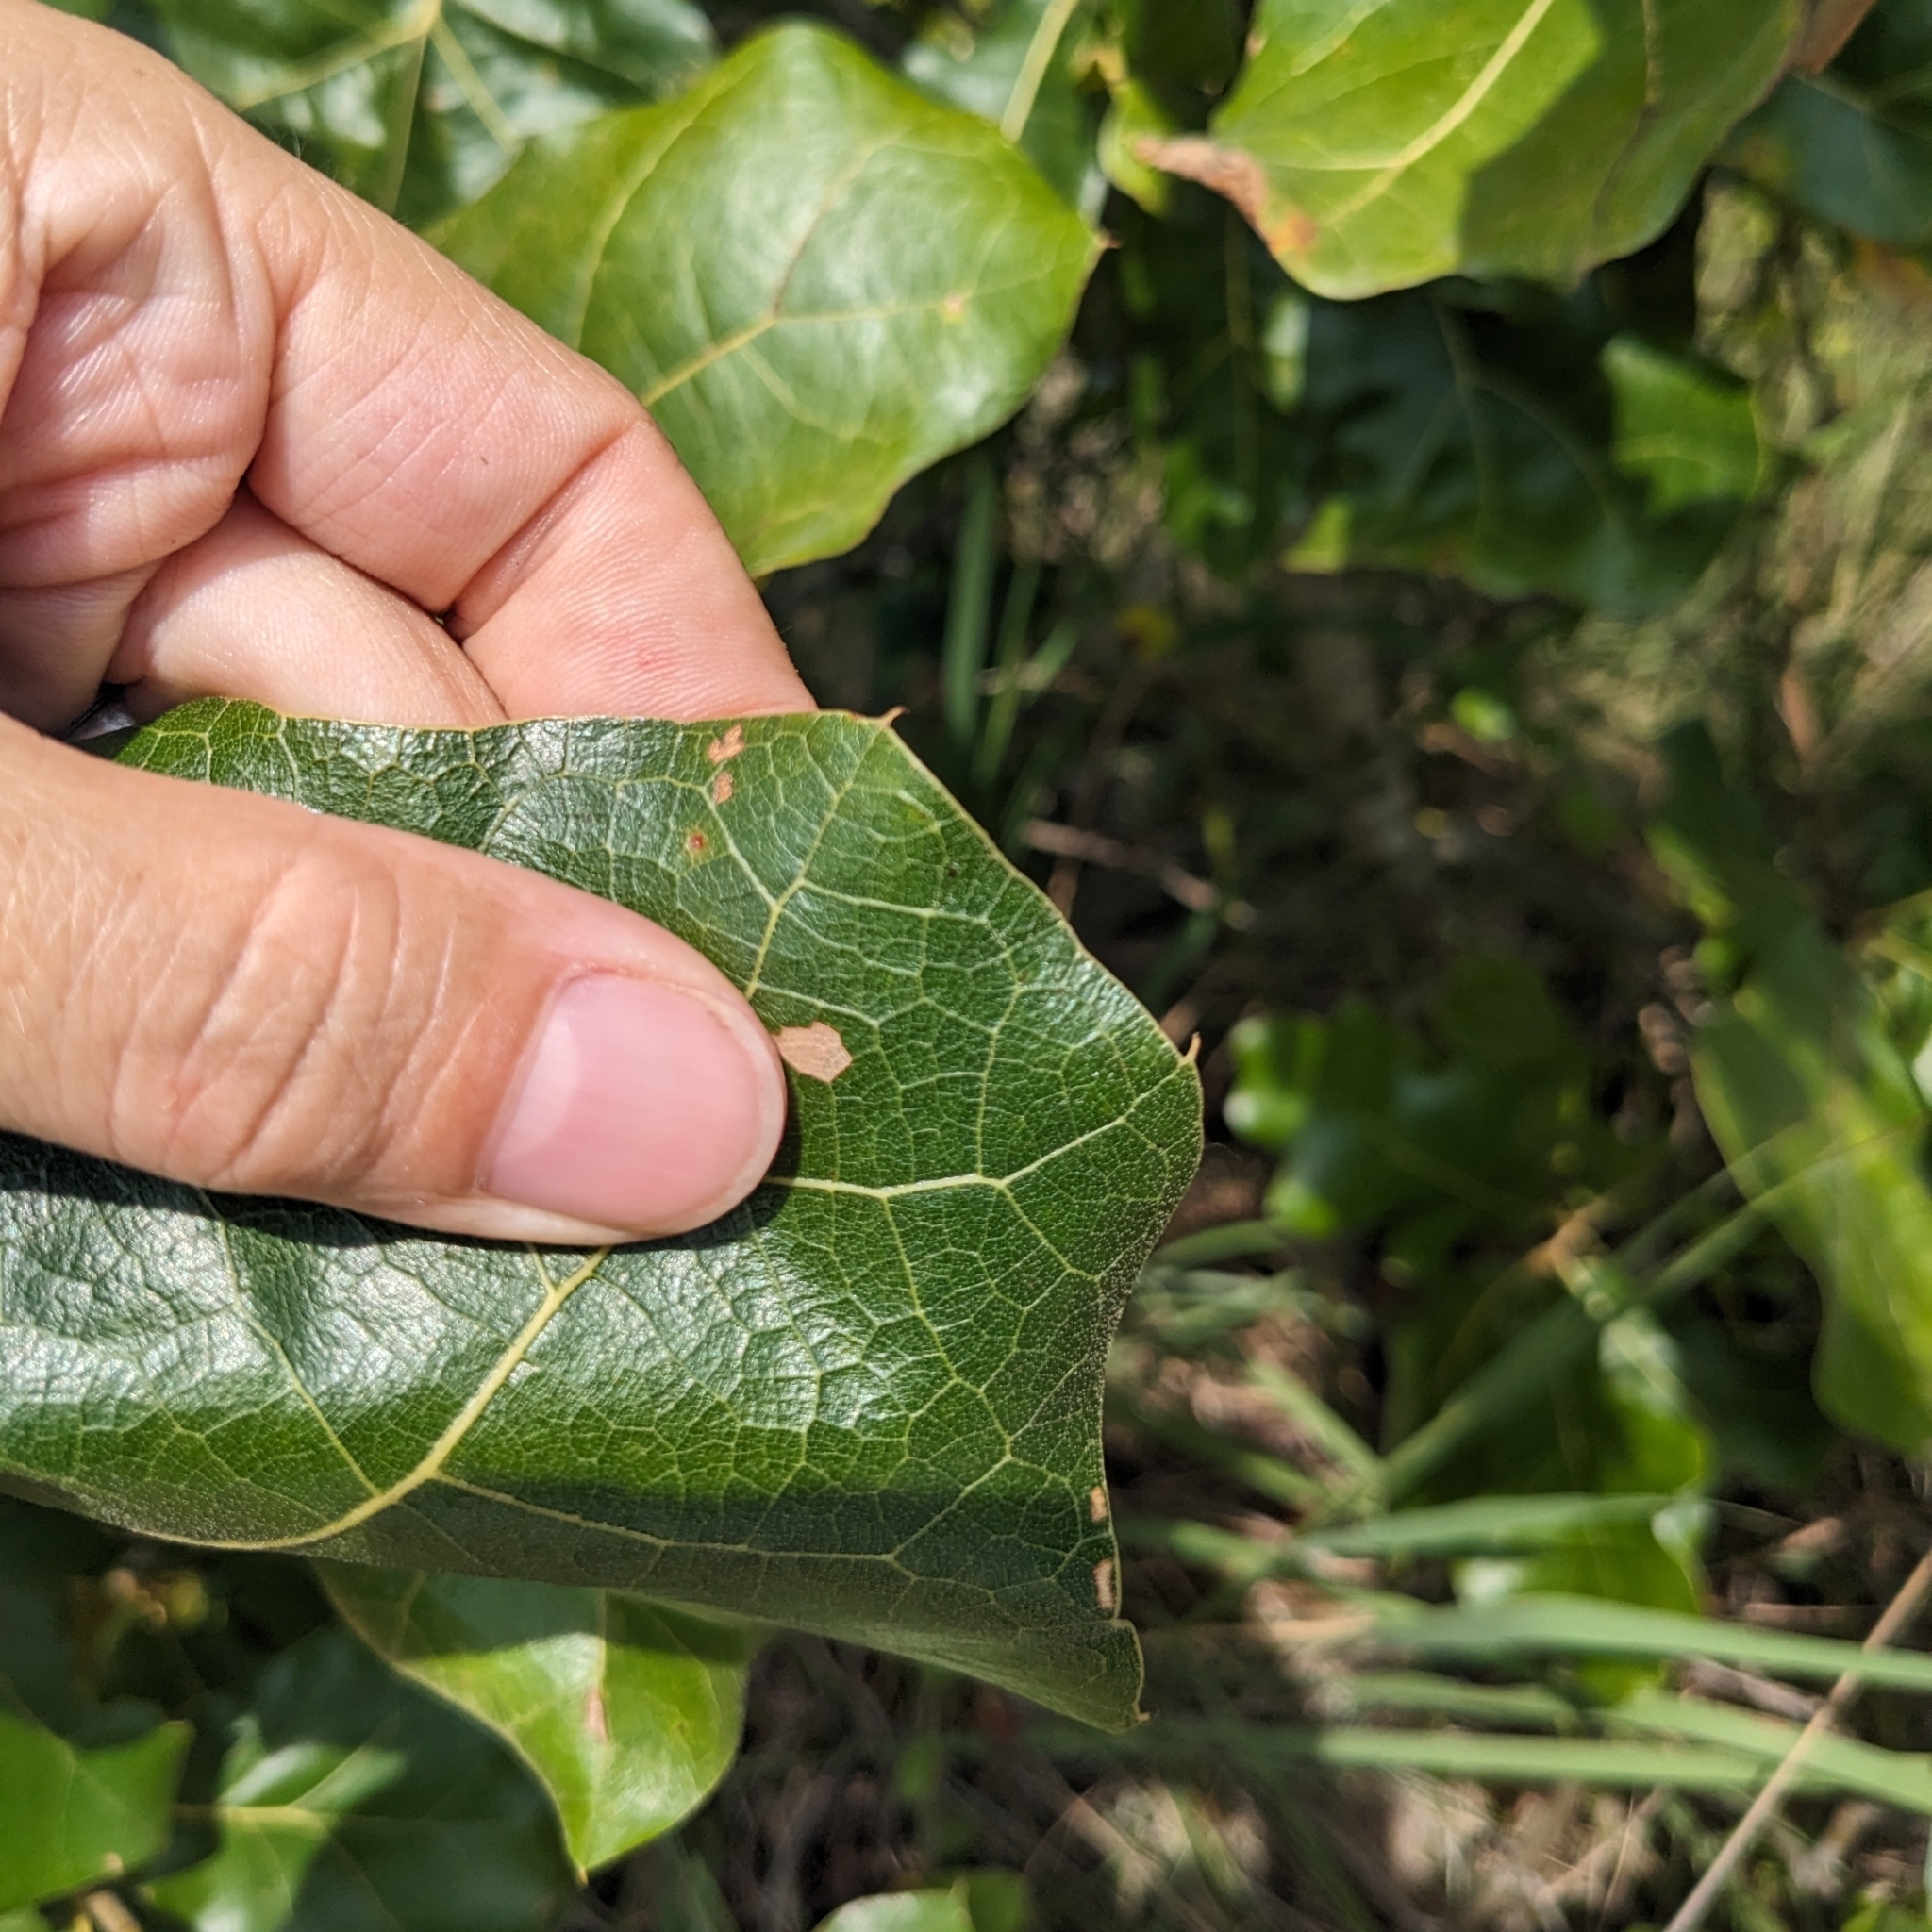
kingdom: Plantae
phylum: Tracheophyta
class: Magnoliopsida
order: Fagales
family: Fagaceae
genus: Quercus
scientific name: Quercus marilandica
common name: Blackjack oak
